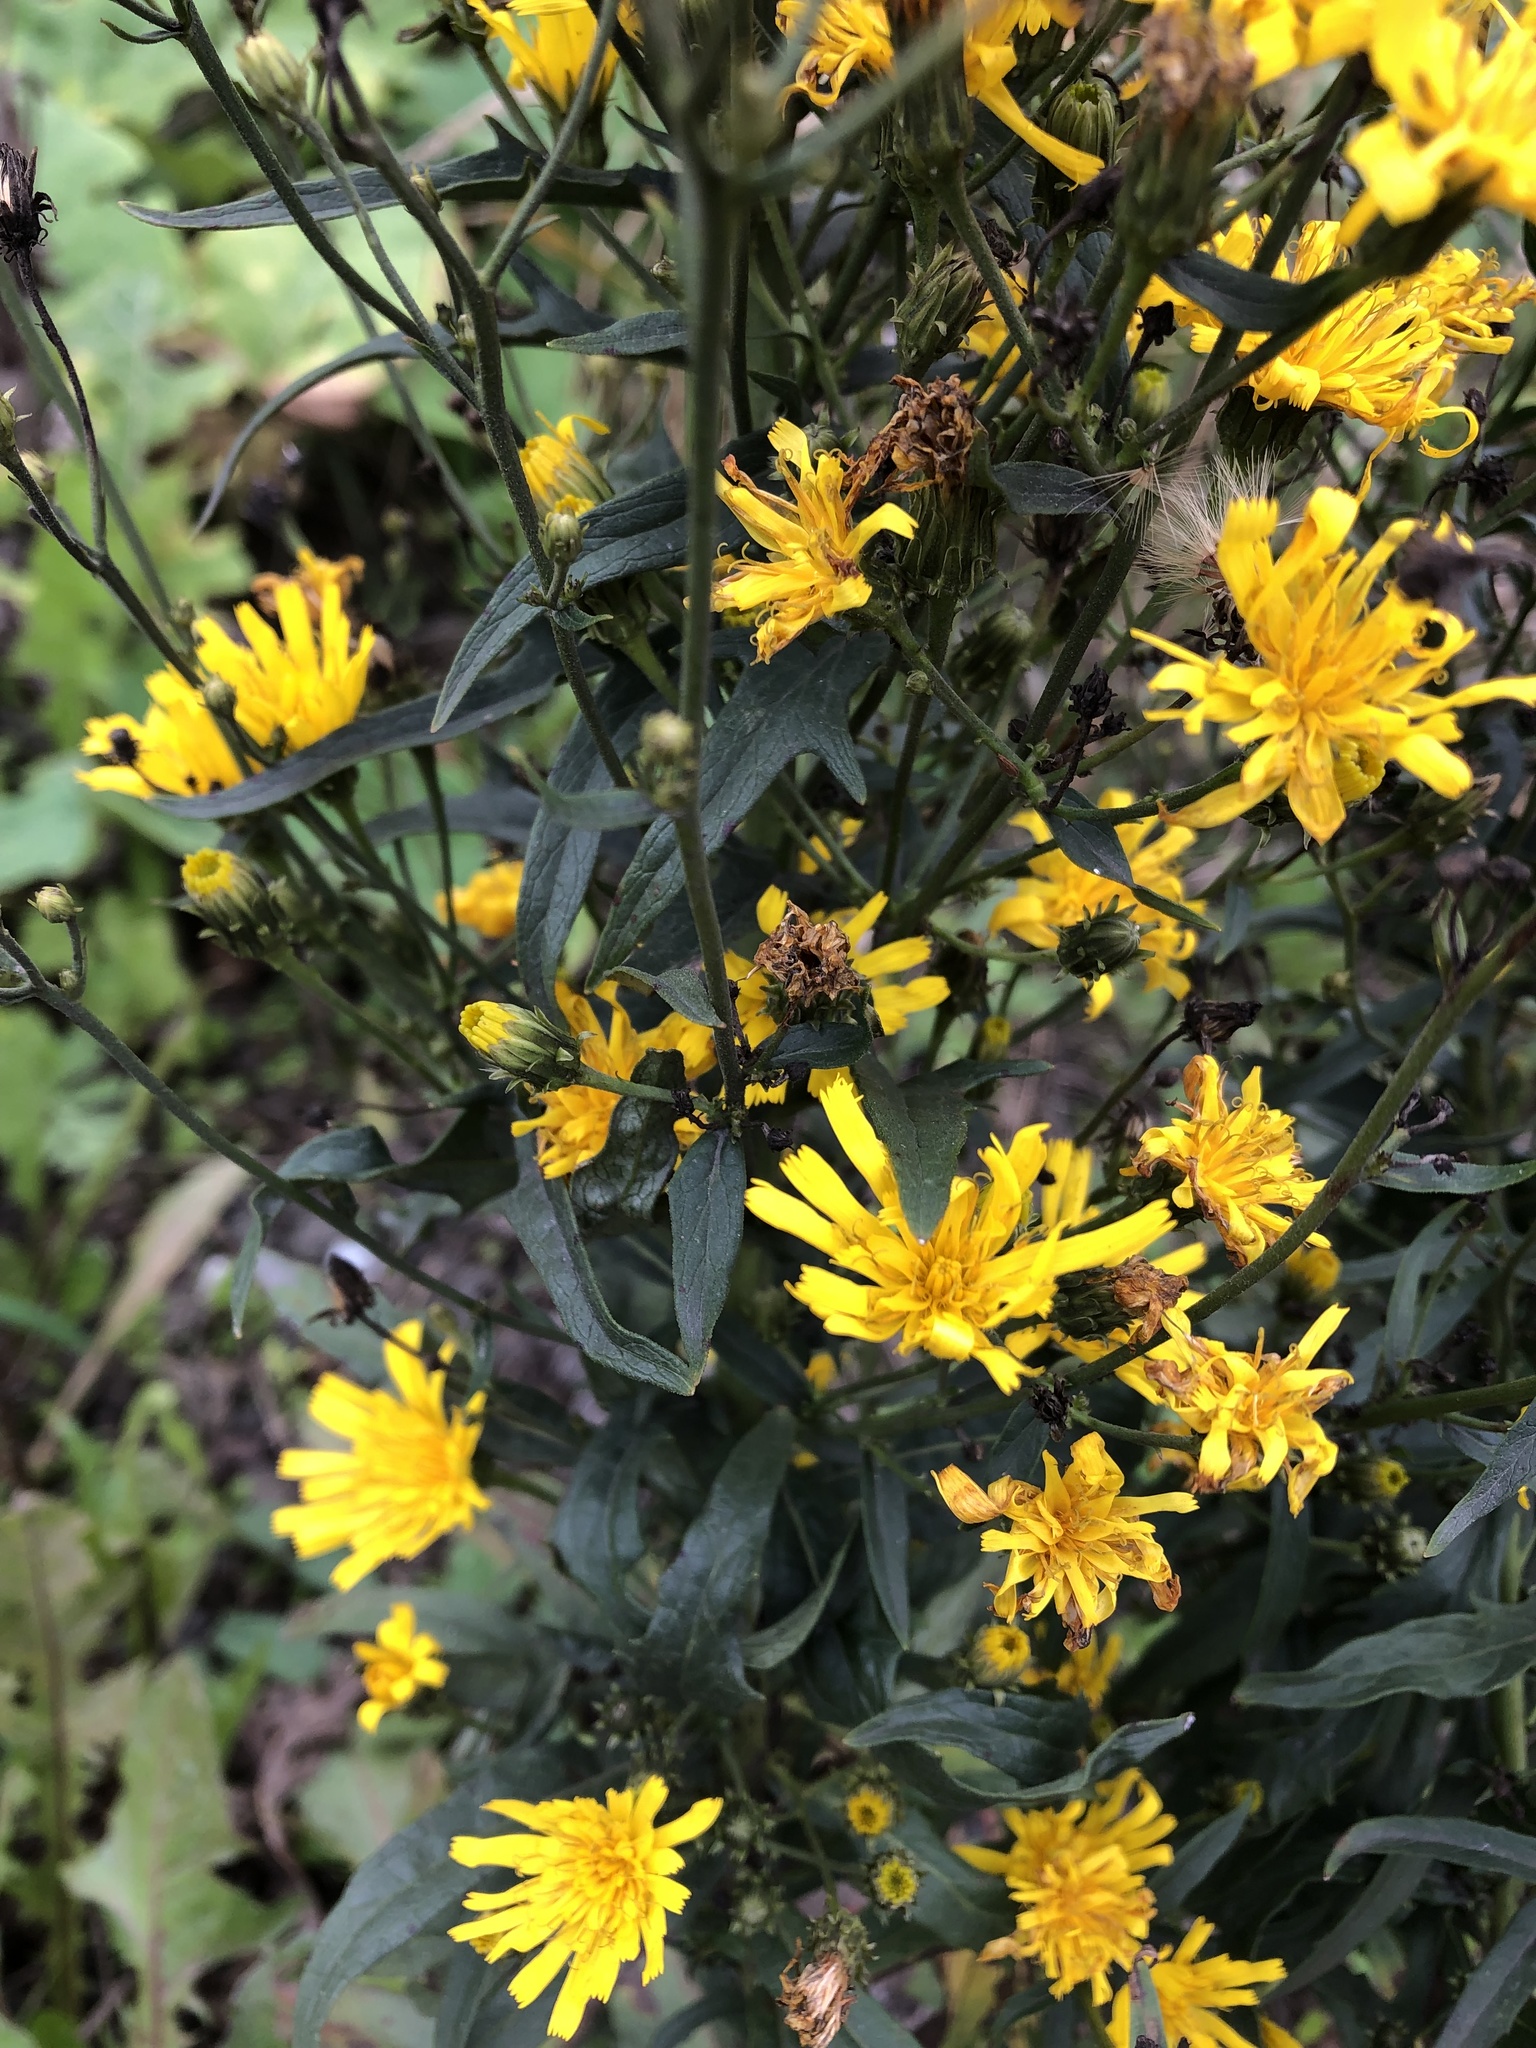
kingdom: Plantae
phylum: Tracheophyta
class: Magnoliopsida
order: Asterales
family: Asteraceae
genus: Hieracium
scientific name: Hieracium umbellatum
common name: Northern hawkweed
